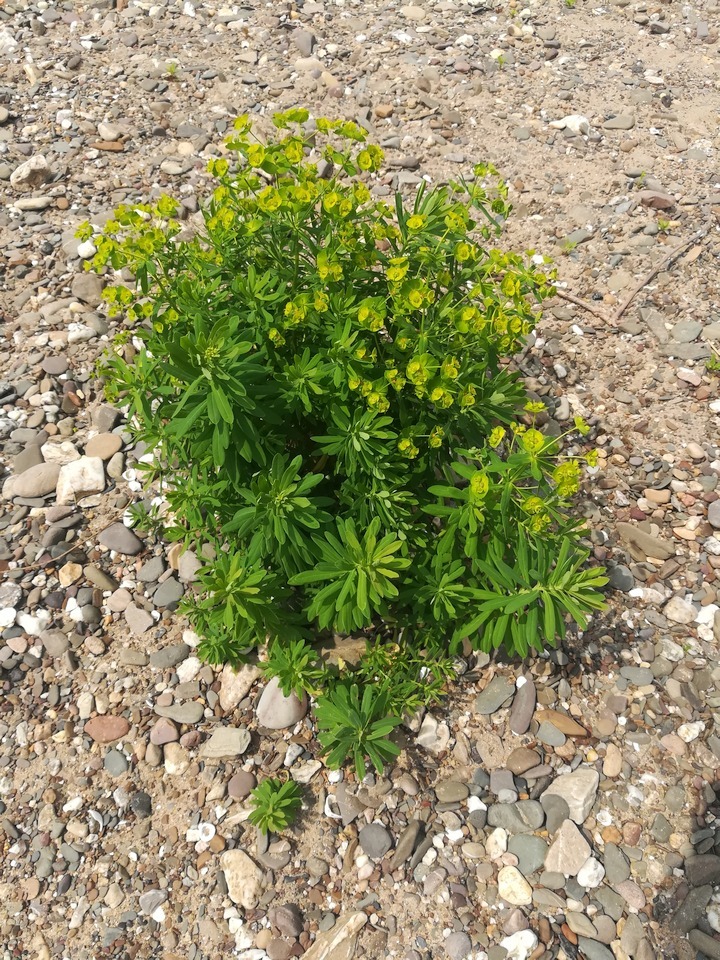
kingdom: Plantae
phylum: Tracheophyta
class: Magnoliopsida
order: Malpighiales
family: Euphorbiaceae
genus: Euphorbia
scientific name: Euphorbia esula
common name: Leafy spurge
